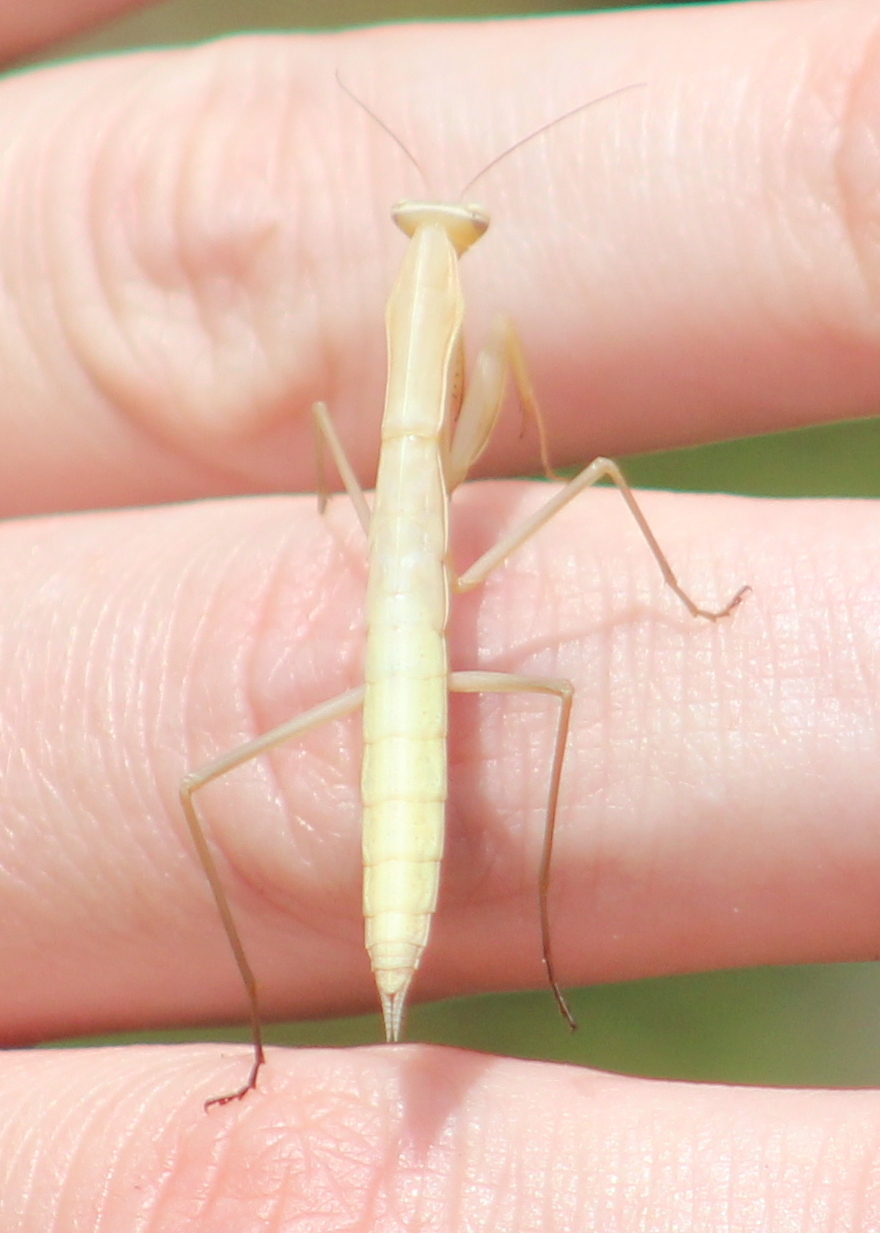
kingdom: Animalia
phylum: Arthropoda
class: Insecta
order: Mantodea
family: Mantidae
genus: Mantis
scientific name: Mantis religiosa
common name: Praying mantis
